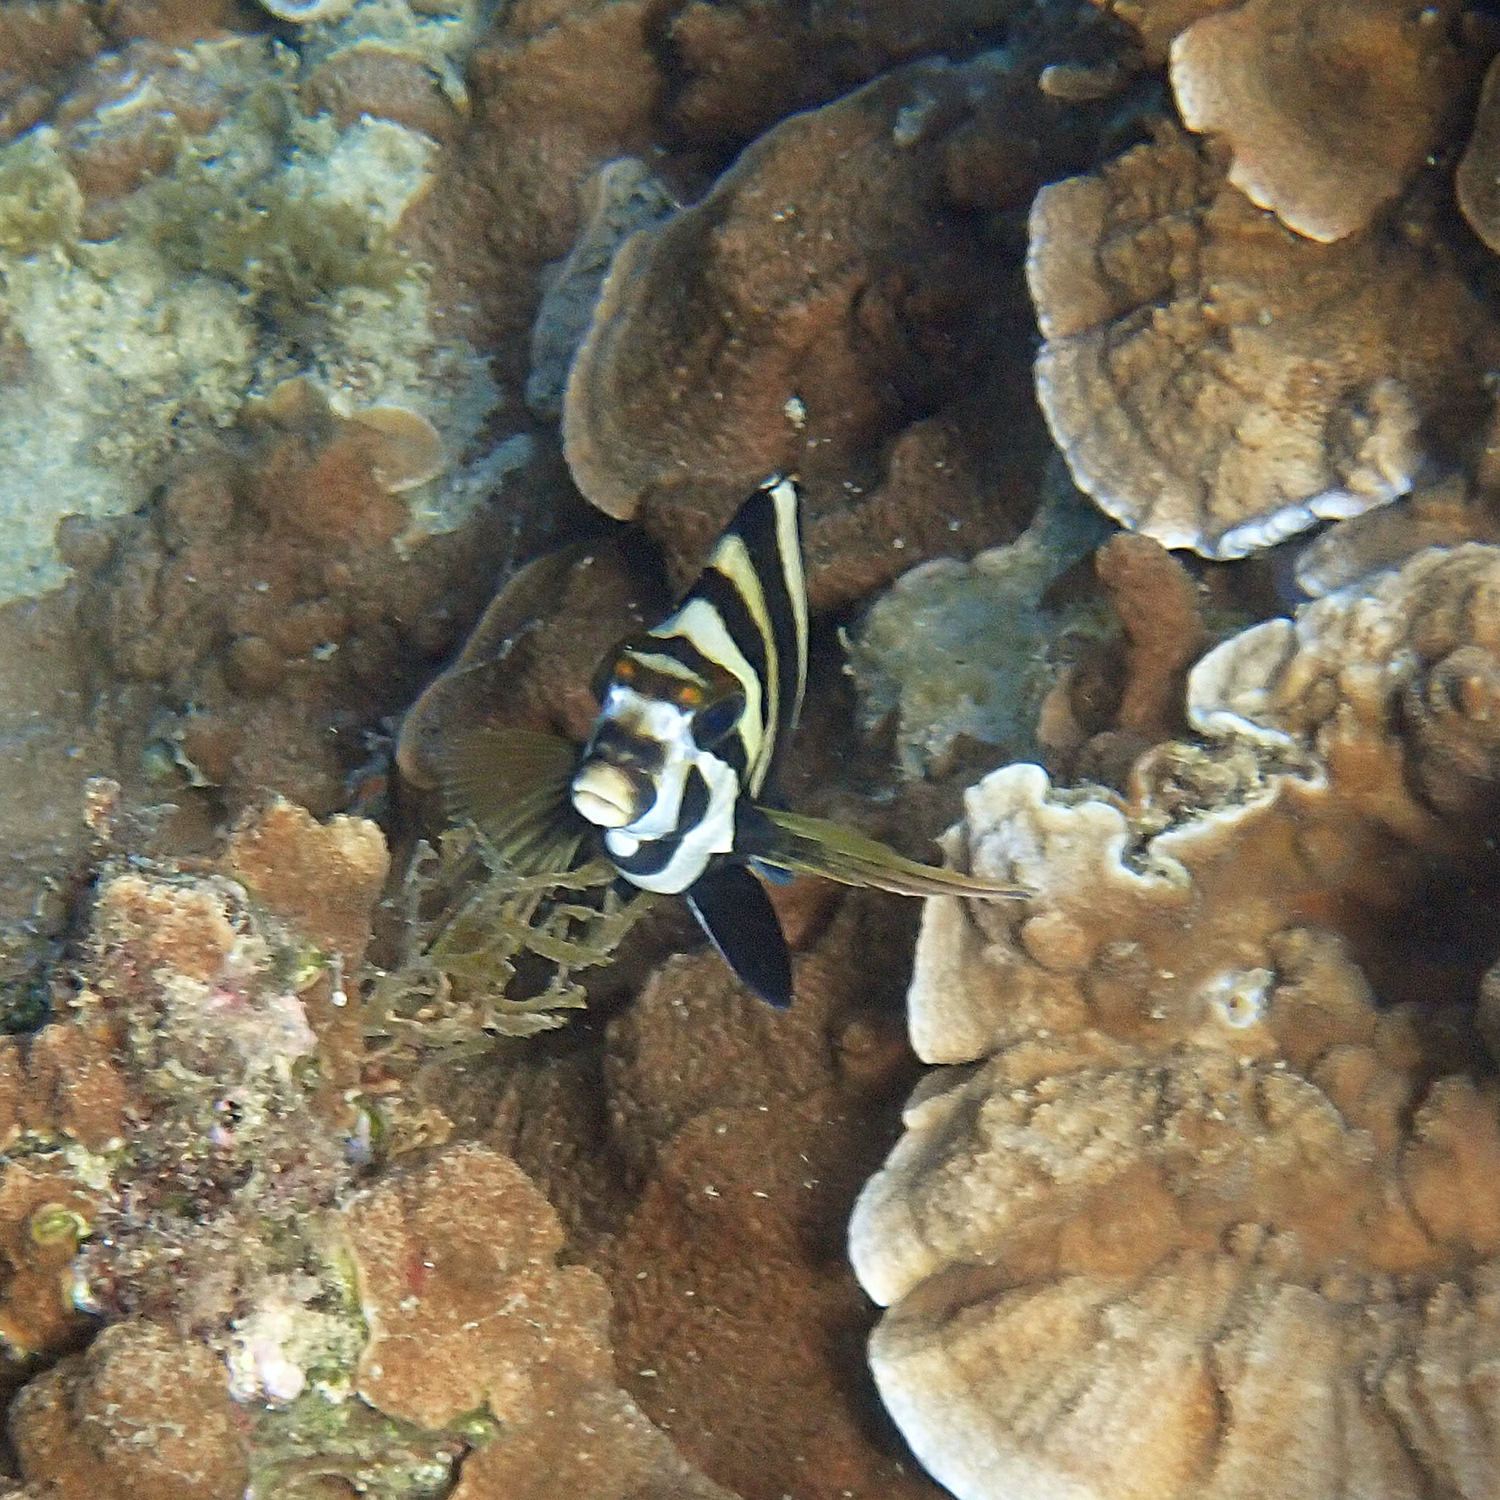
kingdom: Animalia
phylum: Chordata
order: Perciformes
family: Cheilodactylidae
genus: Cheilodactylus
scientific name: Cheilodactylus francisi
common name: Blacktip morwong
